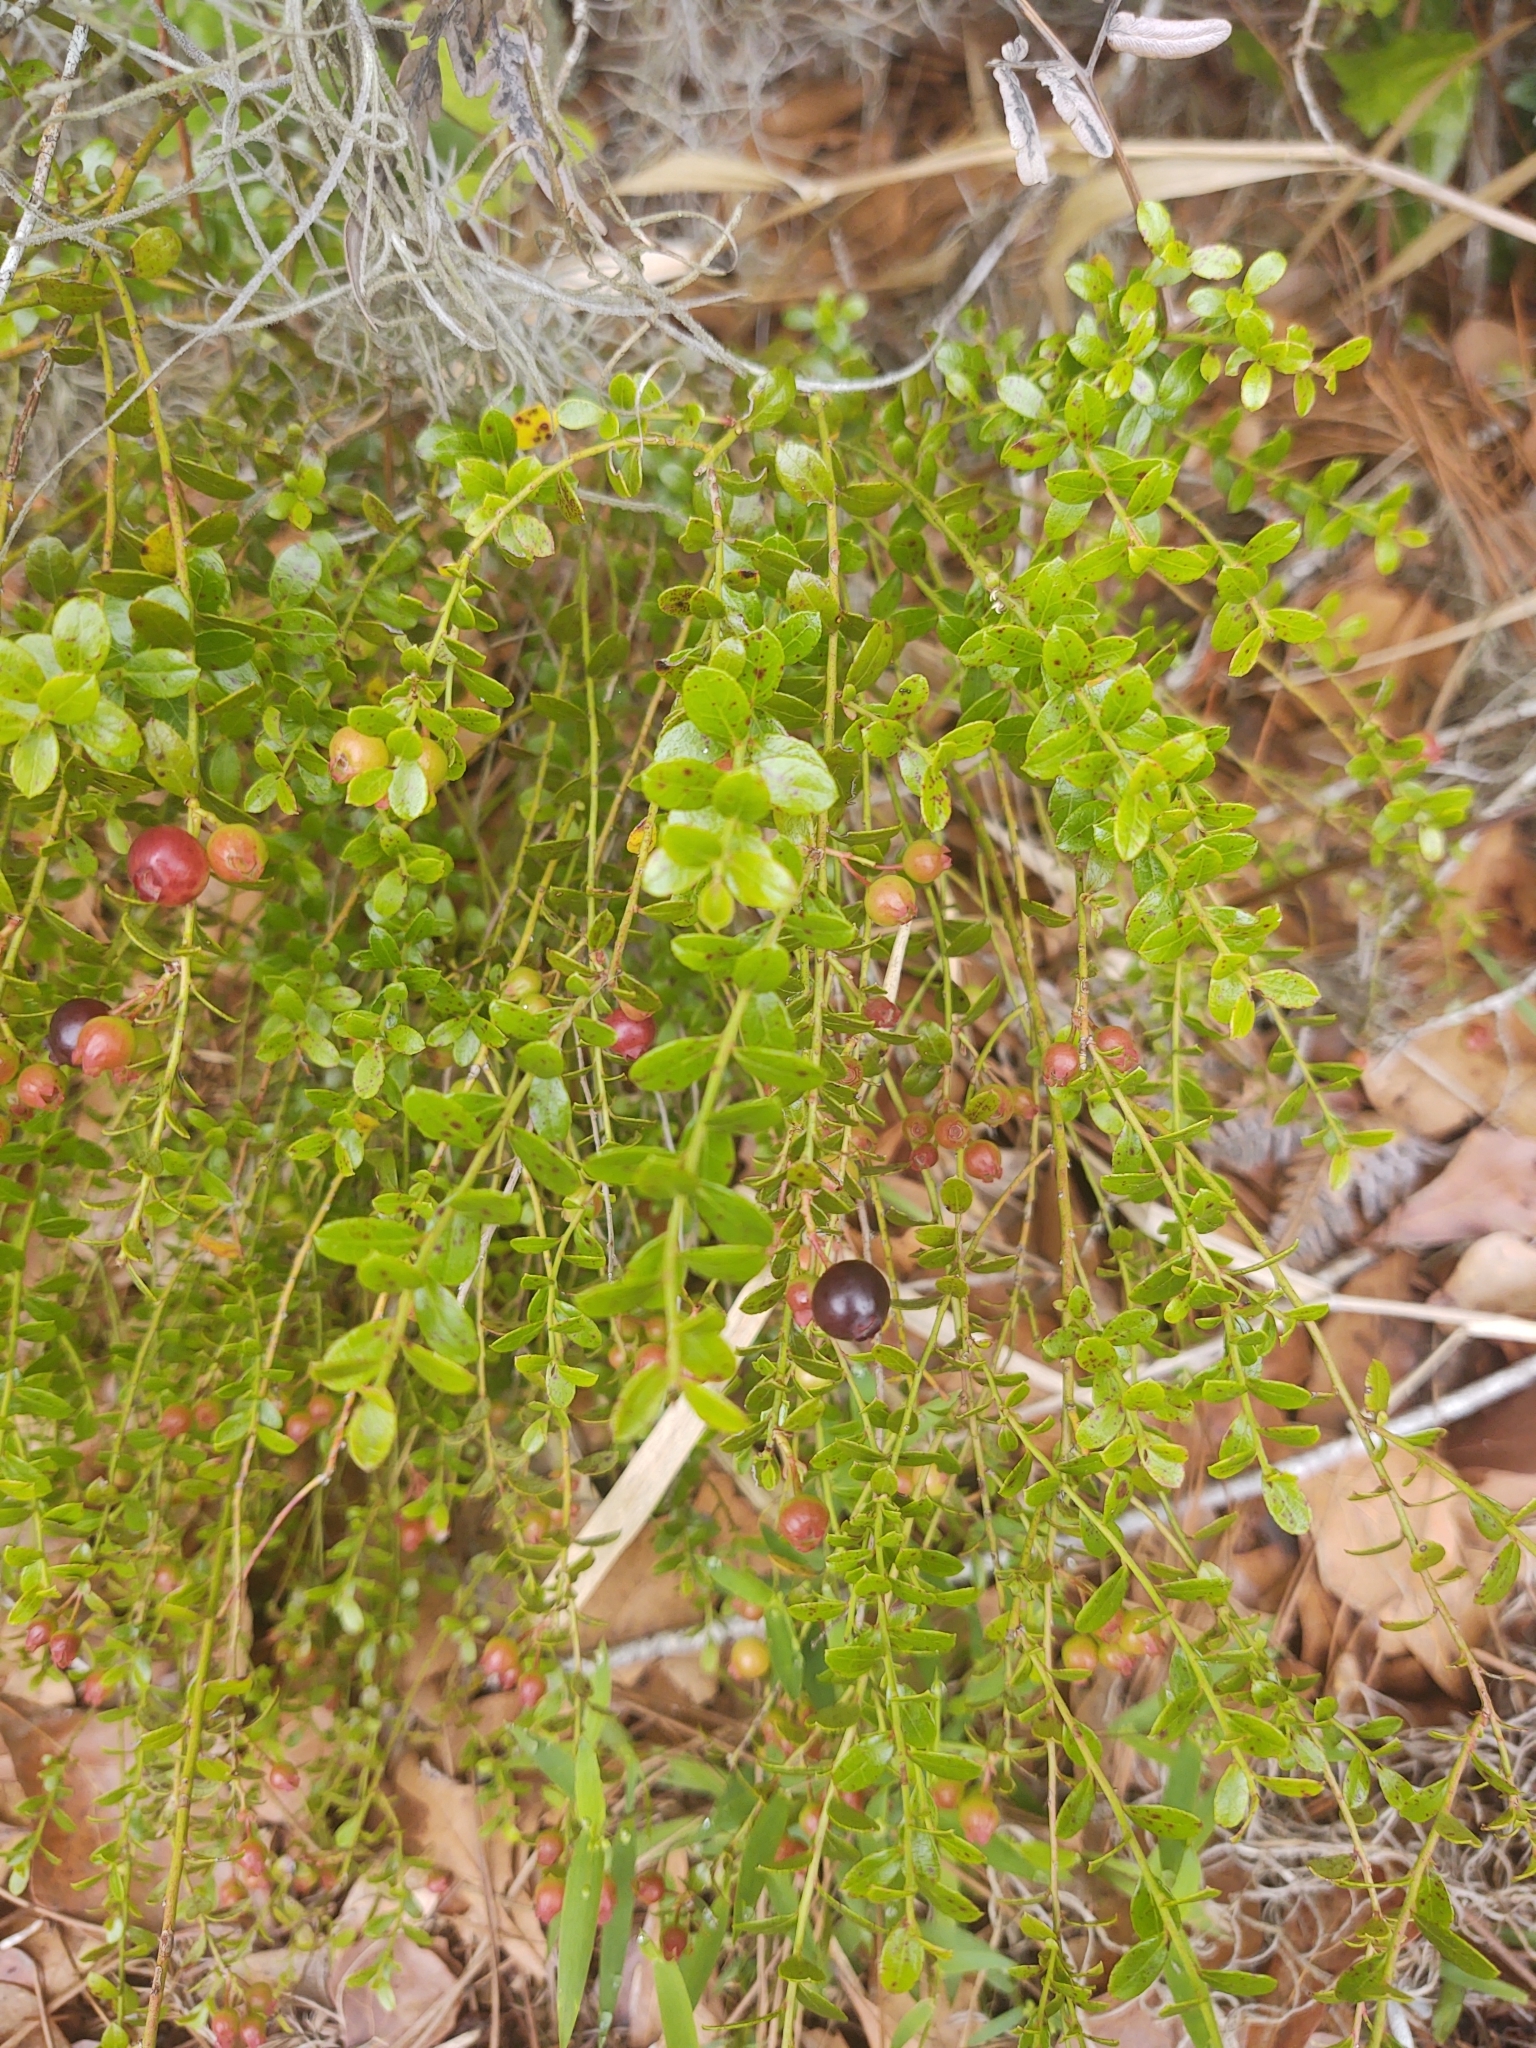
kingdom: Plantae
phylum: Tracheophyta
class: Magnoliopsida
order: Ericales
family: Ericaceae
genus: Vaccinium
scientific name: Vaccinium myrsinites
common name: Evergreen blueberry
